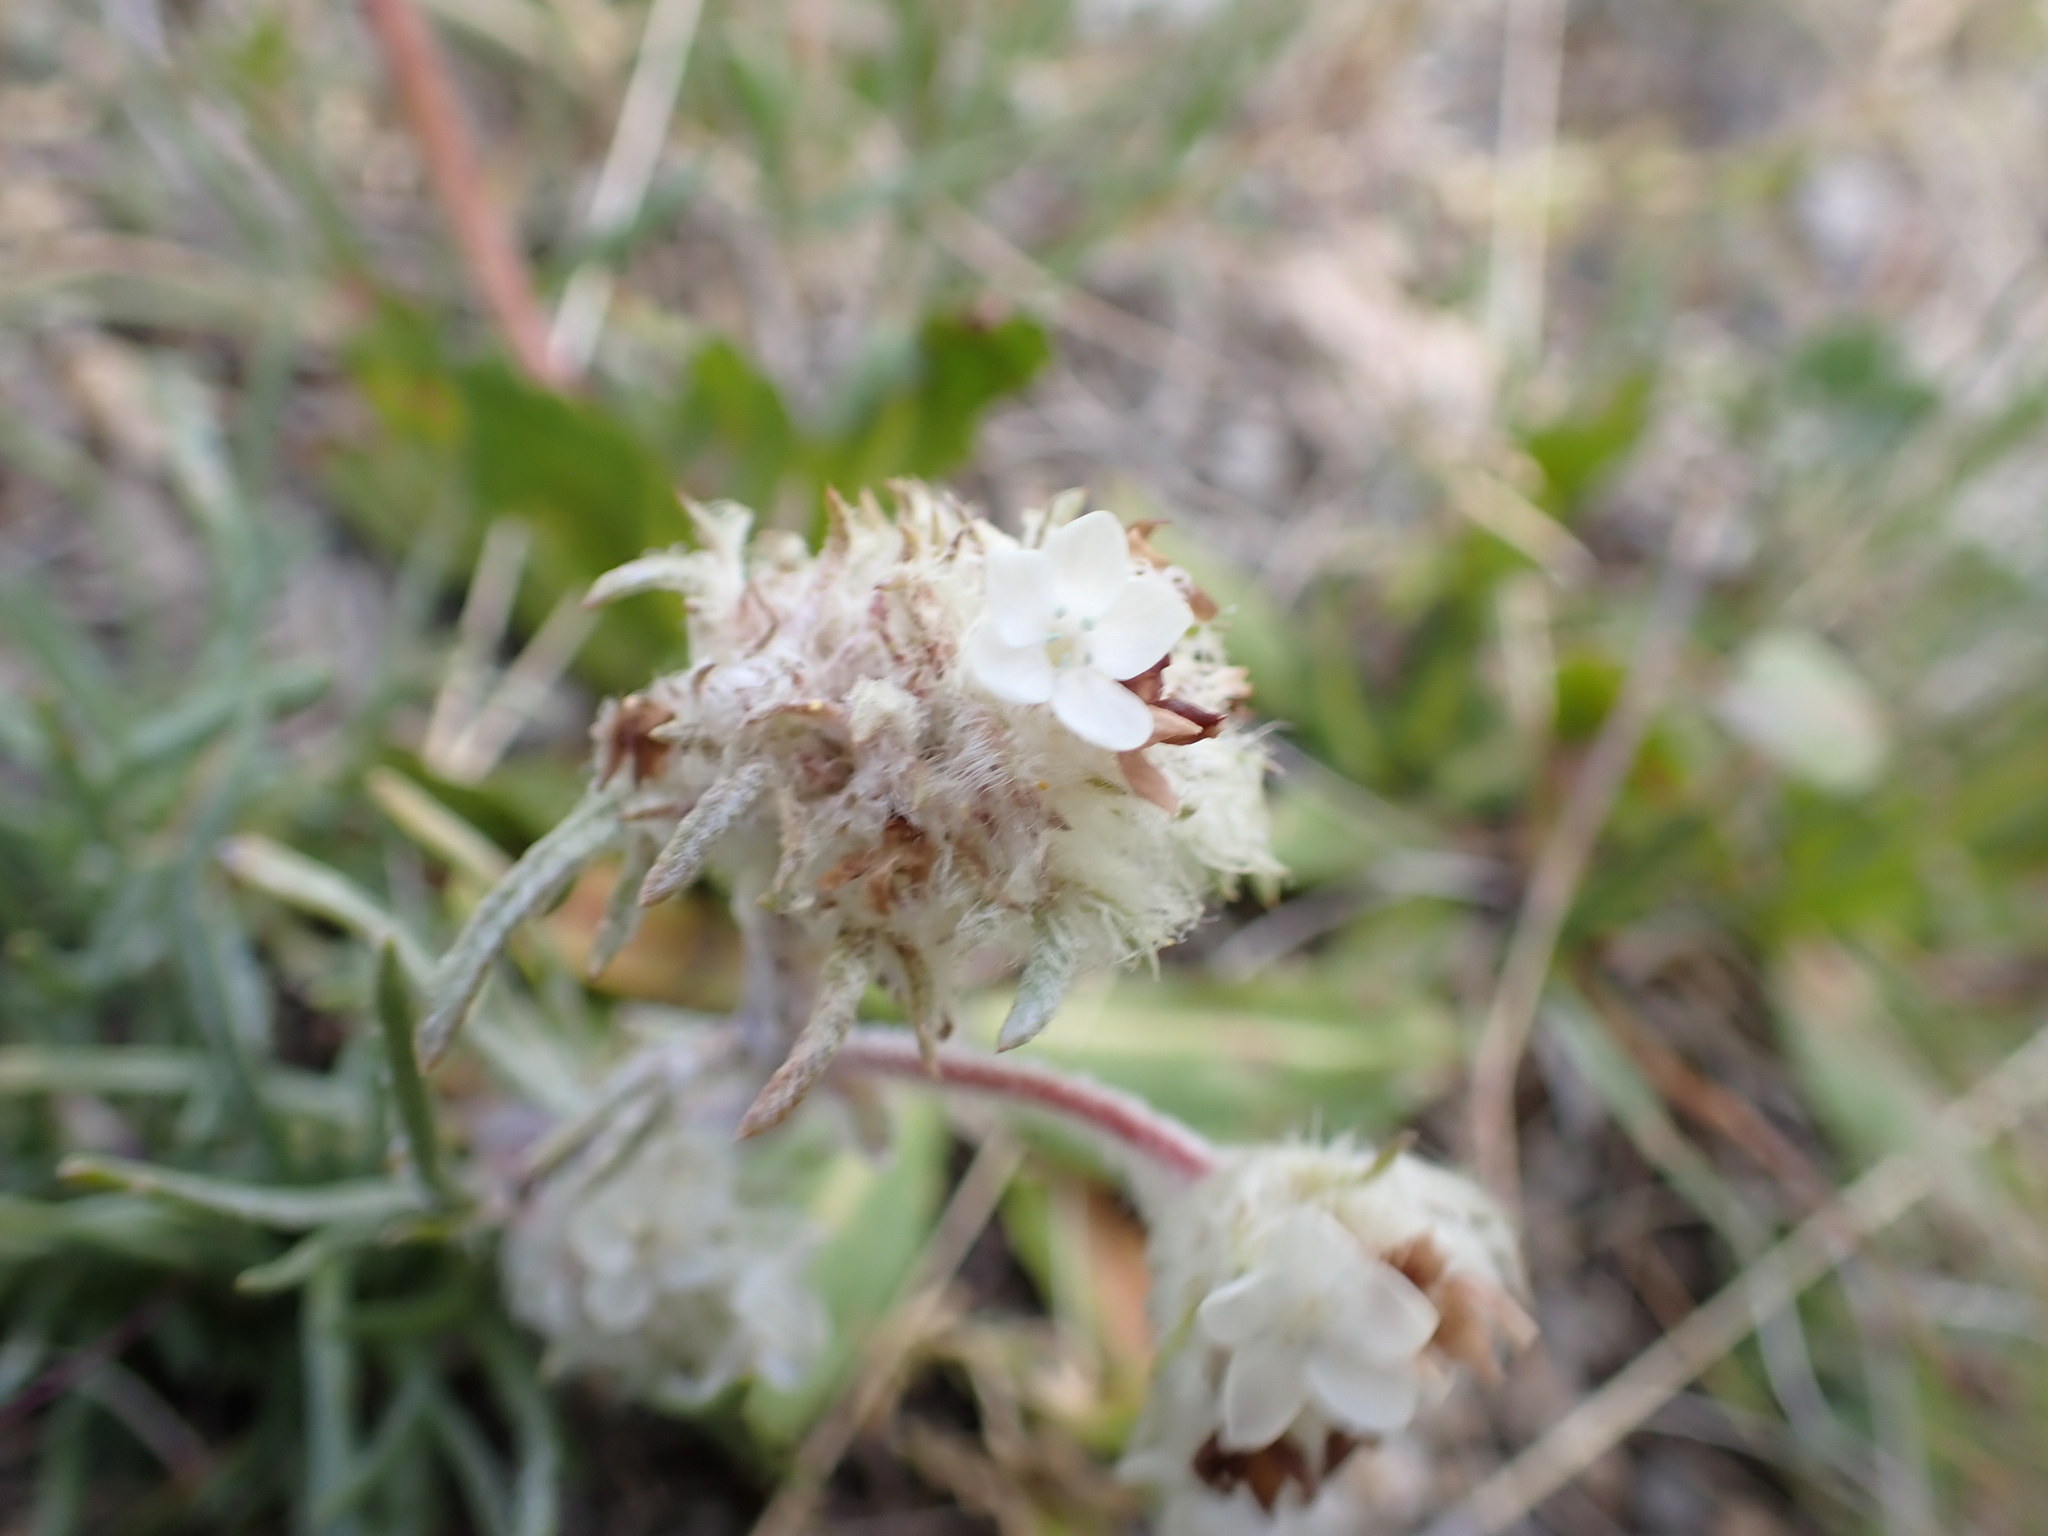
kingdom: Plantae
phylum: Tracheophyta
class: Magnoliopsida
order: Ericales
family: Polemoniaceae
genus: Ipomopsis
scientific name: Ipomopsis globularis
